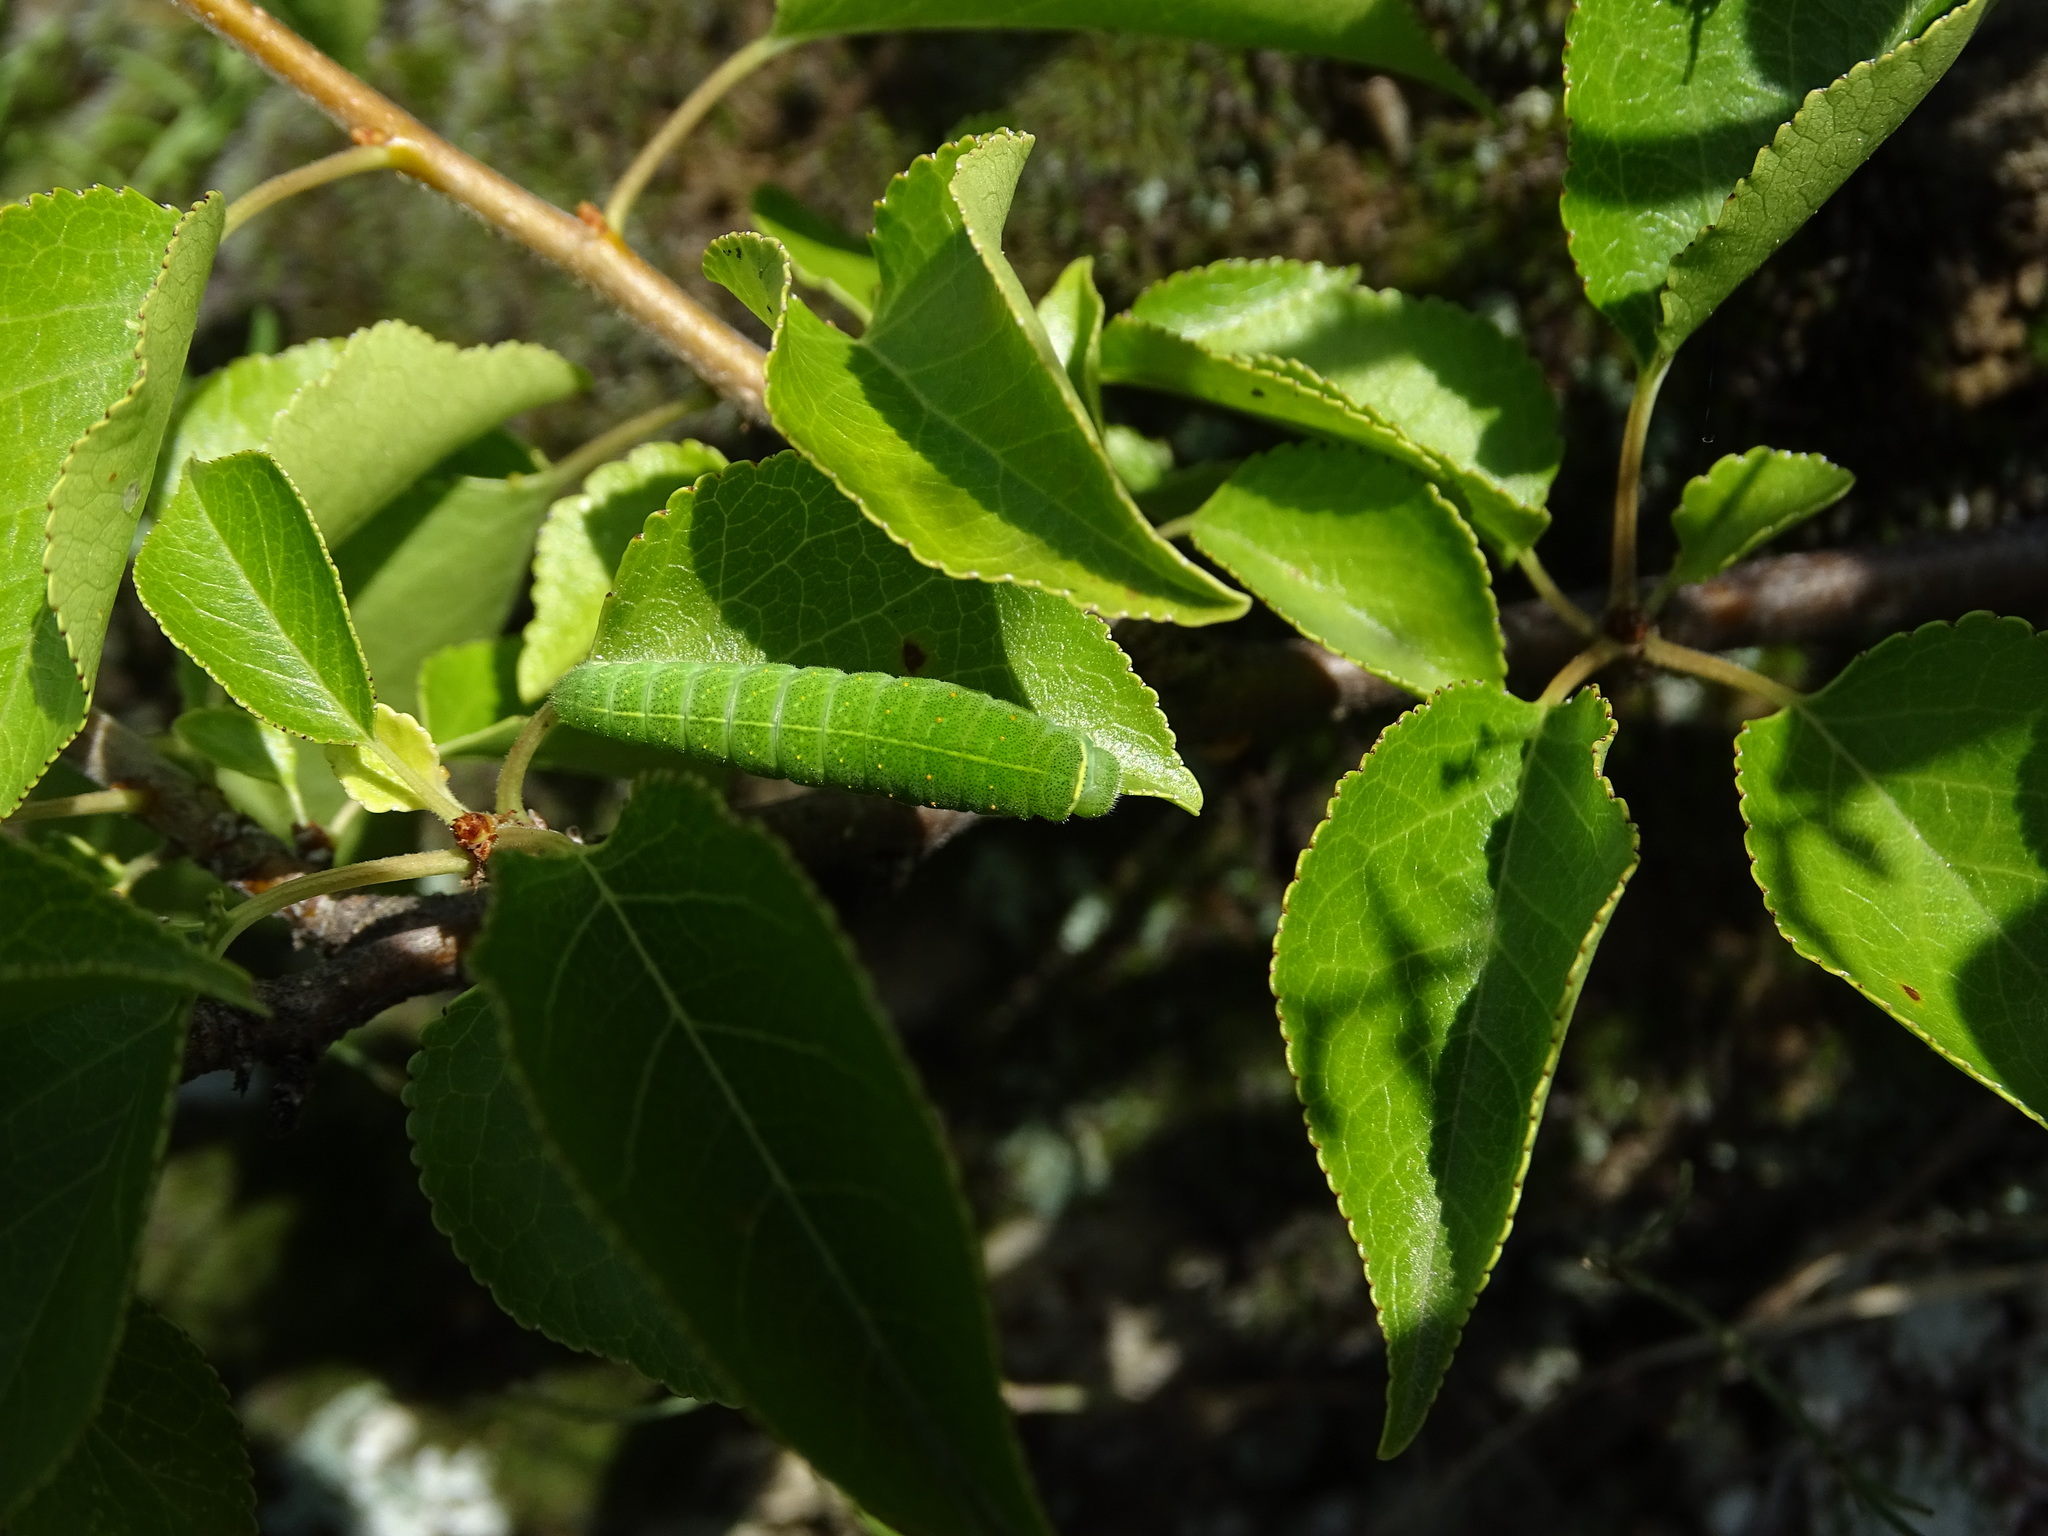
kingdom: Animalia
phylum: Arthropoda
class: Insecta
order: Lepidoptera
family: Papilionidae
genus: Iphiclides
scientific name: Iphiclides podalirius
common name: Scarce swallowtail
